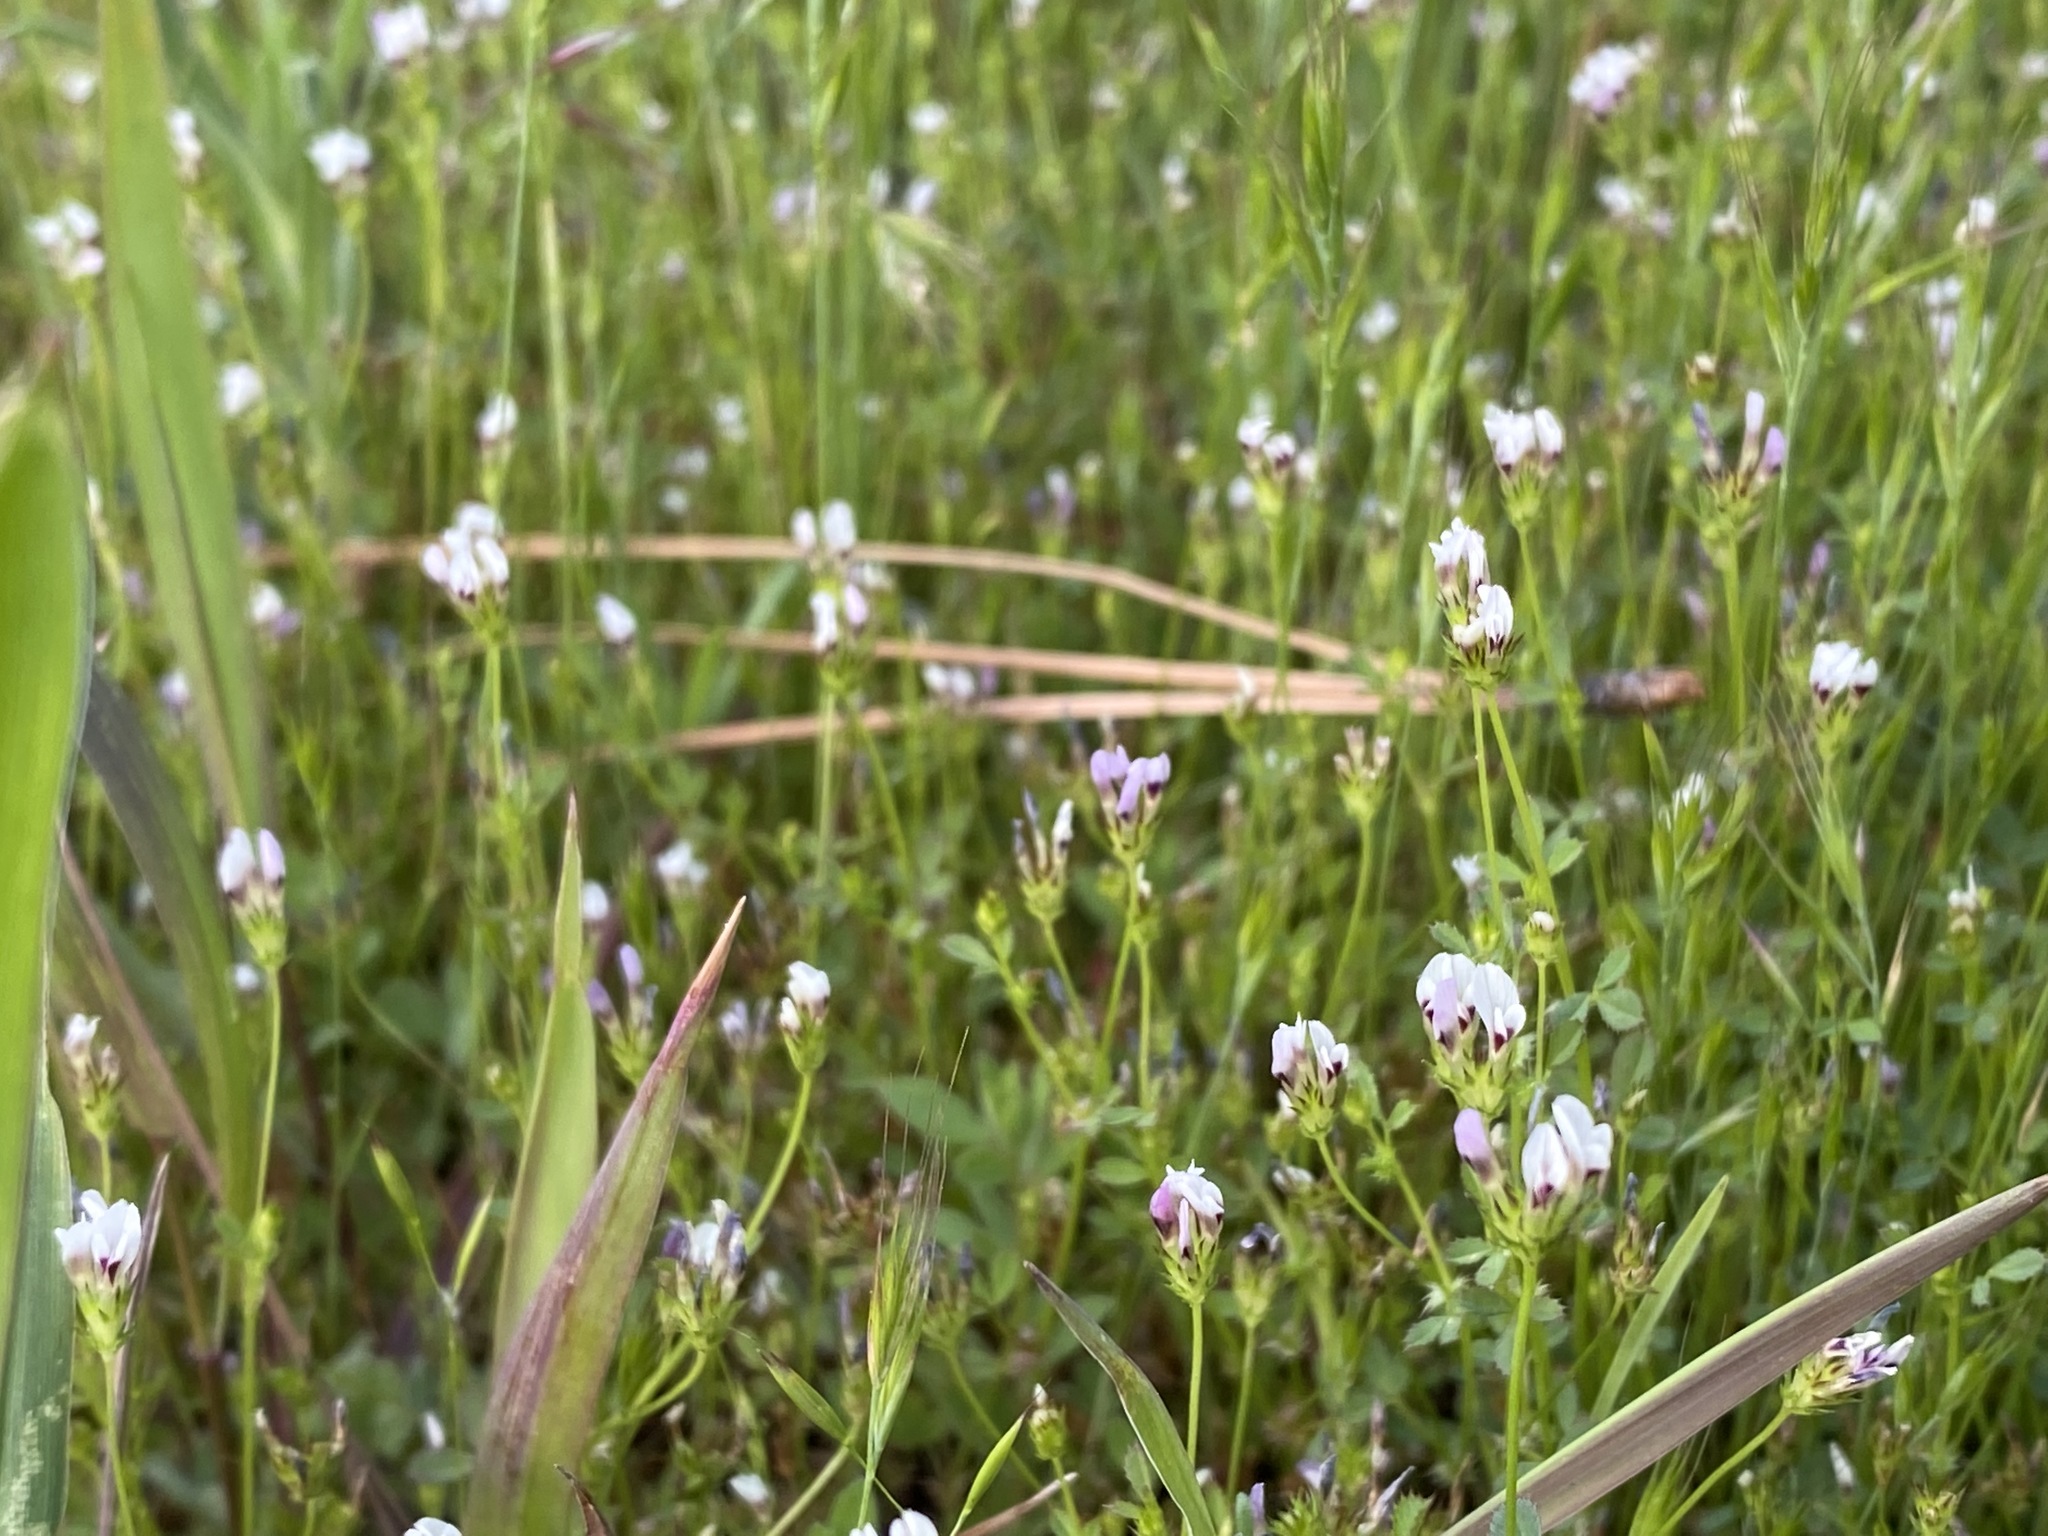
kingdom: Plantae
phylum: Tracheophyta
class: Magnoliopsida
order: Fabales
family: Fabaceae
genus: Trifolium
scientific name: Trifolium variegatum
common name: Whitetip clover
